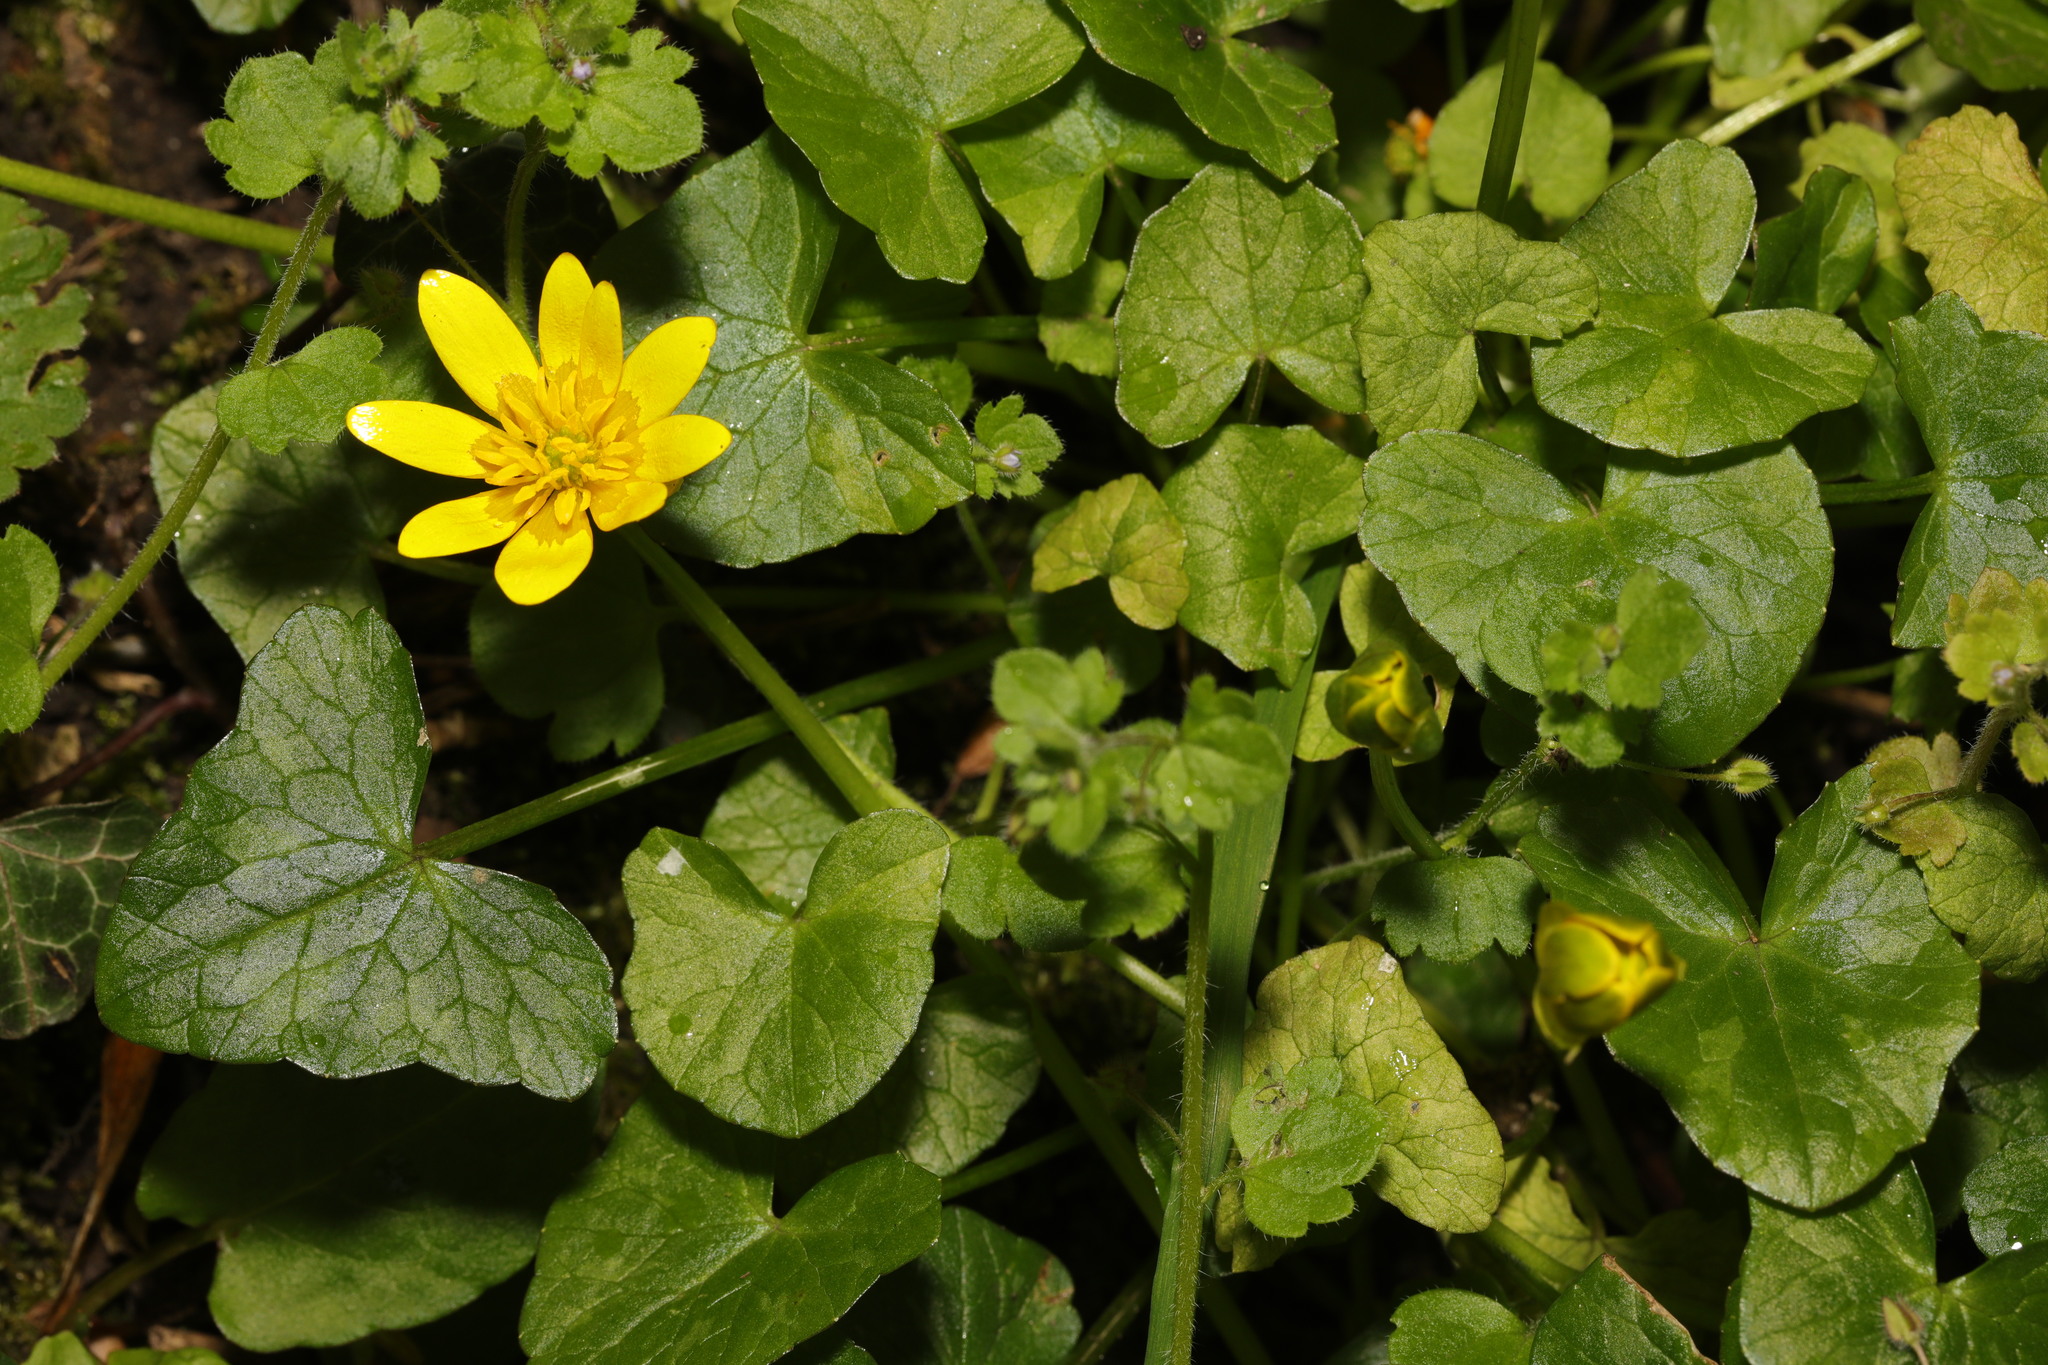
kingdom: Plantae
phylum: Tracheophyta
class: Magnoliopsida
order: Ranunculales
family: Ranunculaceae
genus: Ficaria
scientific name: Ficaria verna
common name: Lesser celandine
